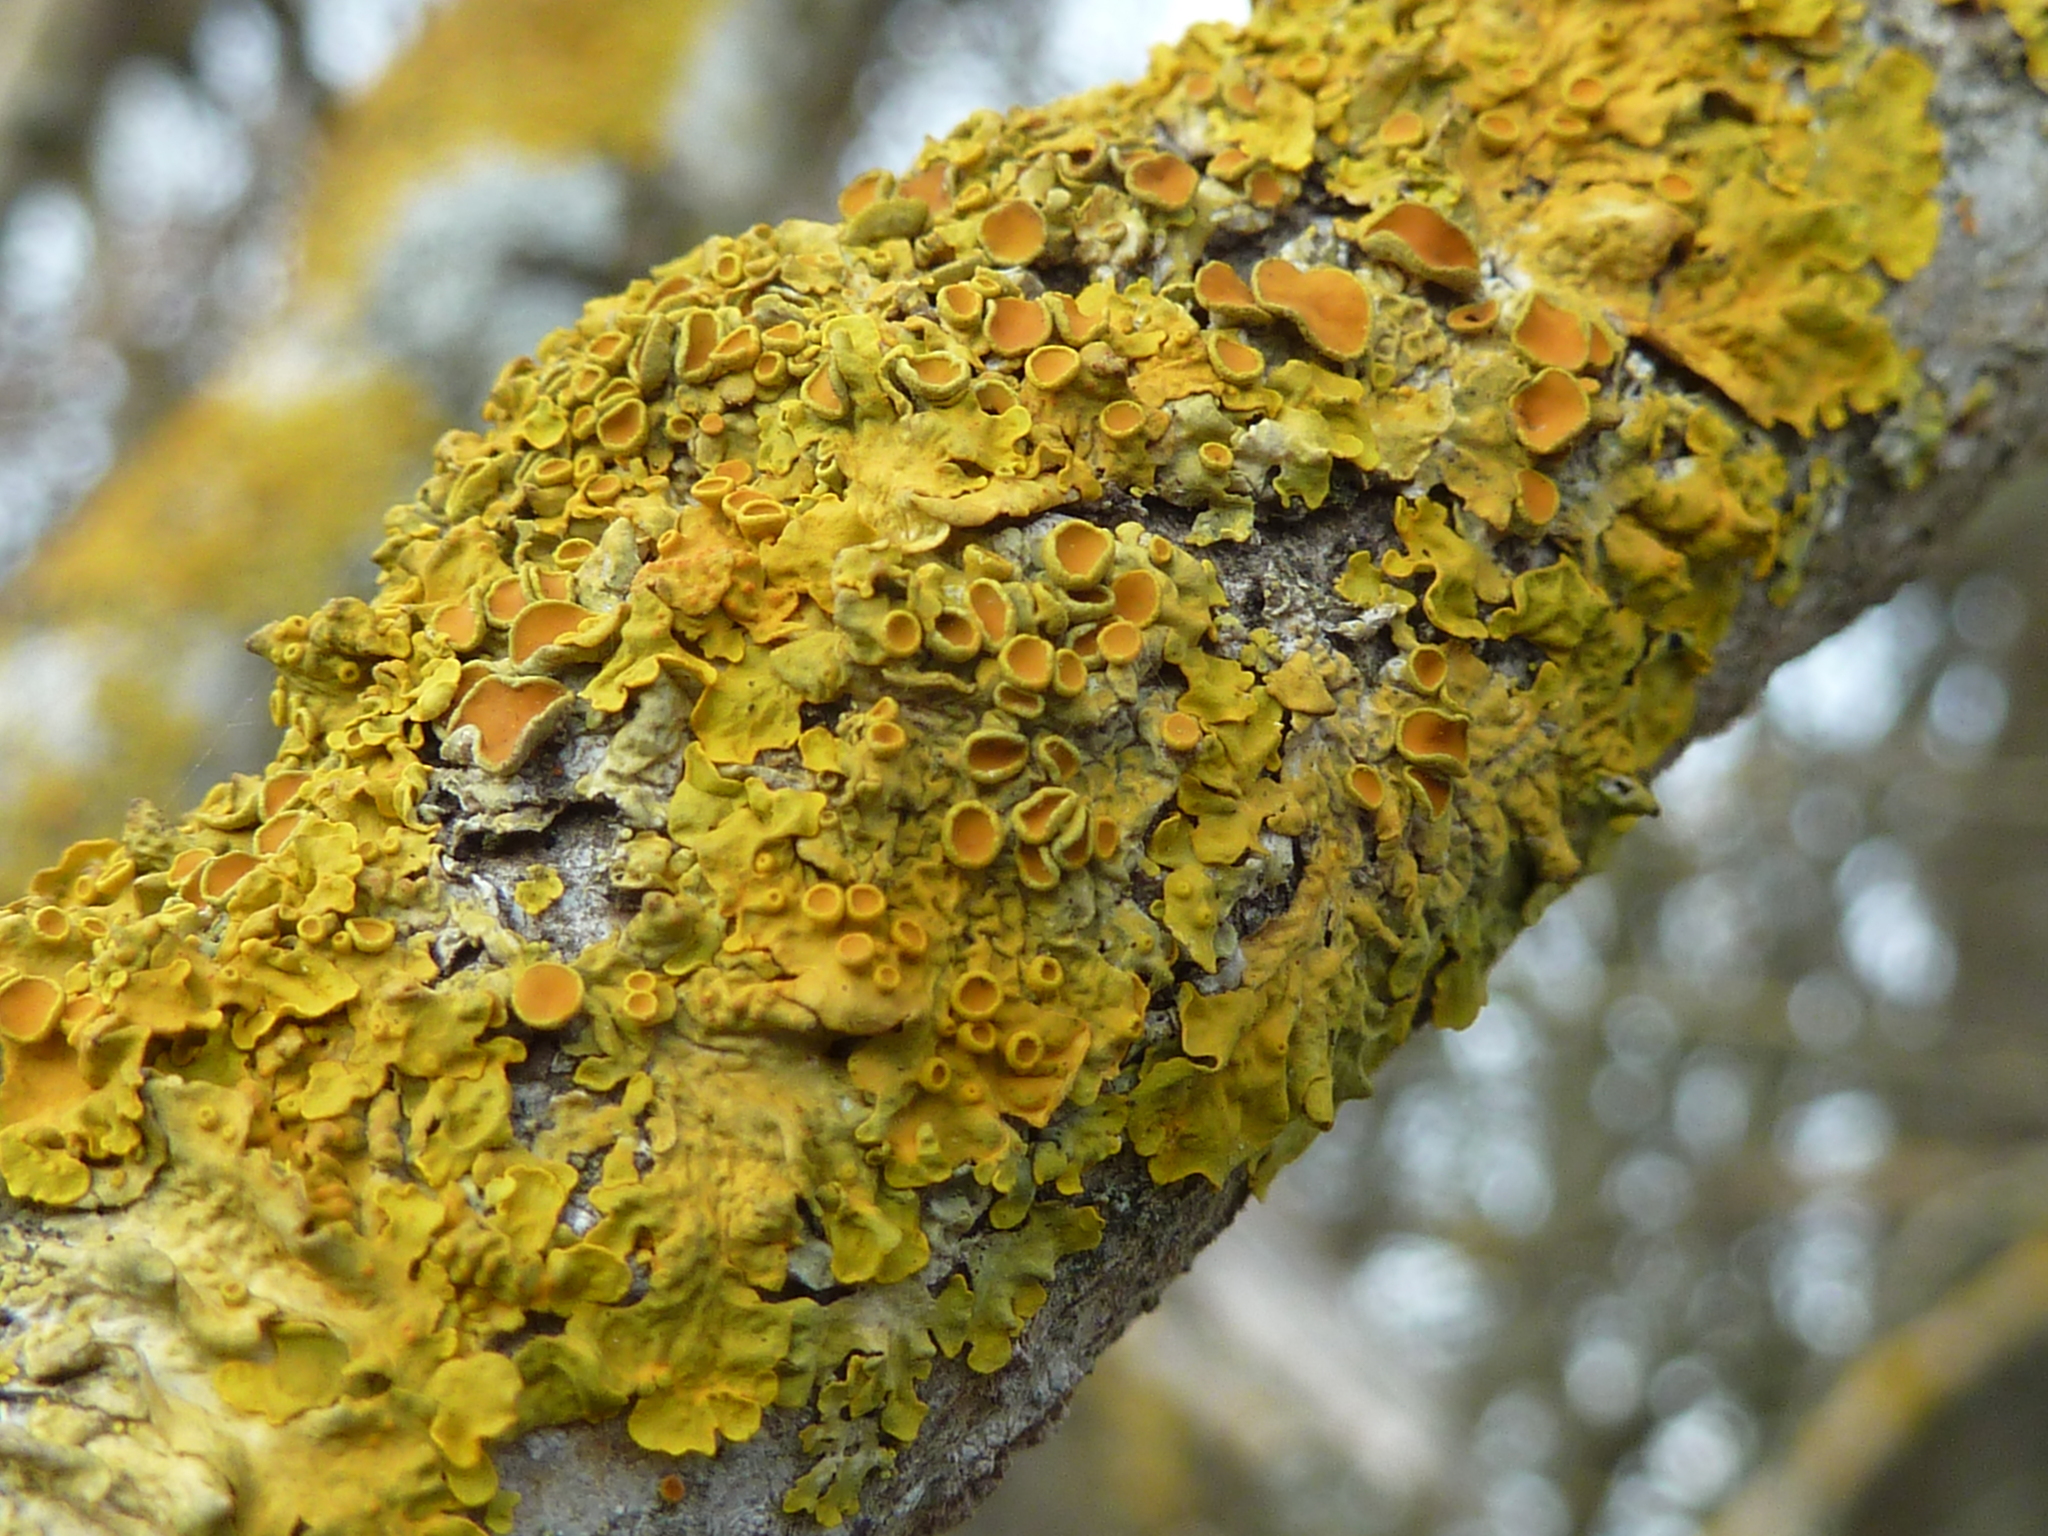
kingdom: Fungi
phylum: Ascomycota
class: Lecanoromycetes
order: Teloschistales
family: Teloschistaceae
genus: Xanthoria
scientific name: Xanthoria parietina
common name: Common orange lichen
